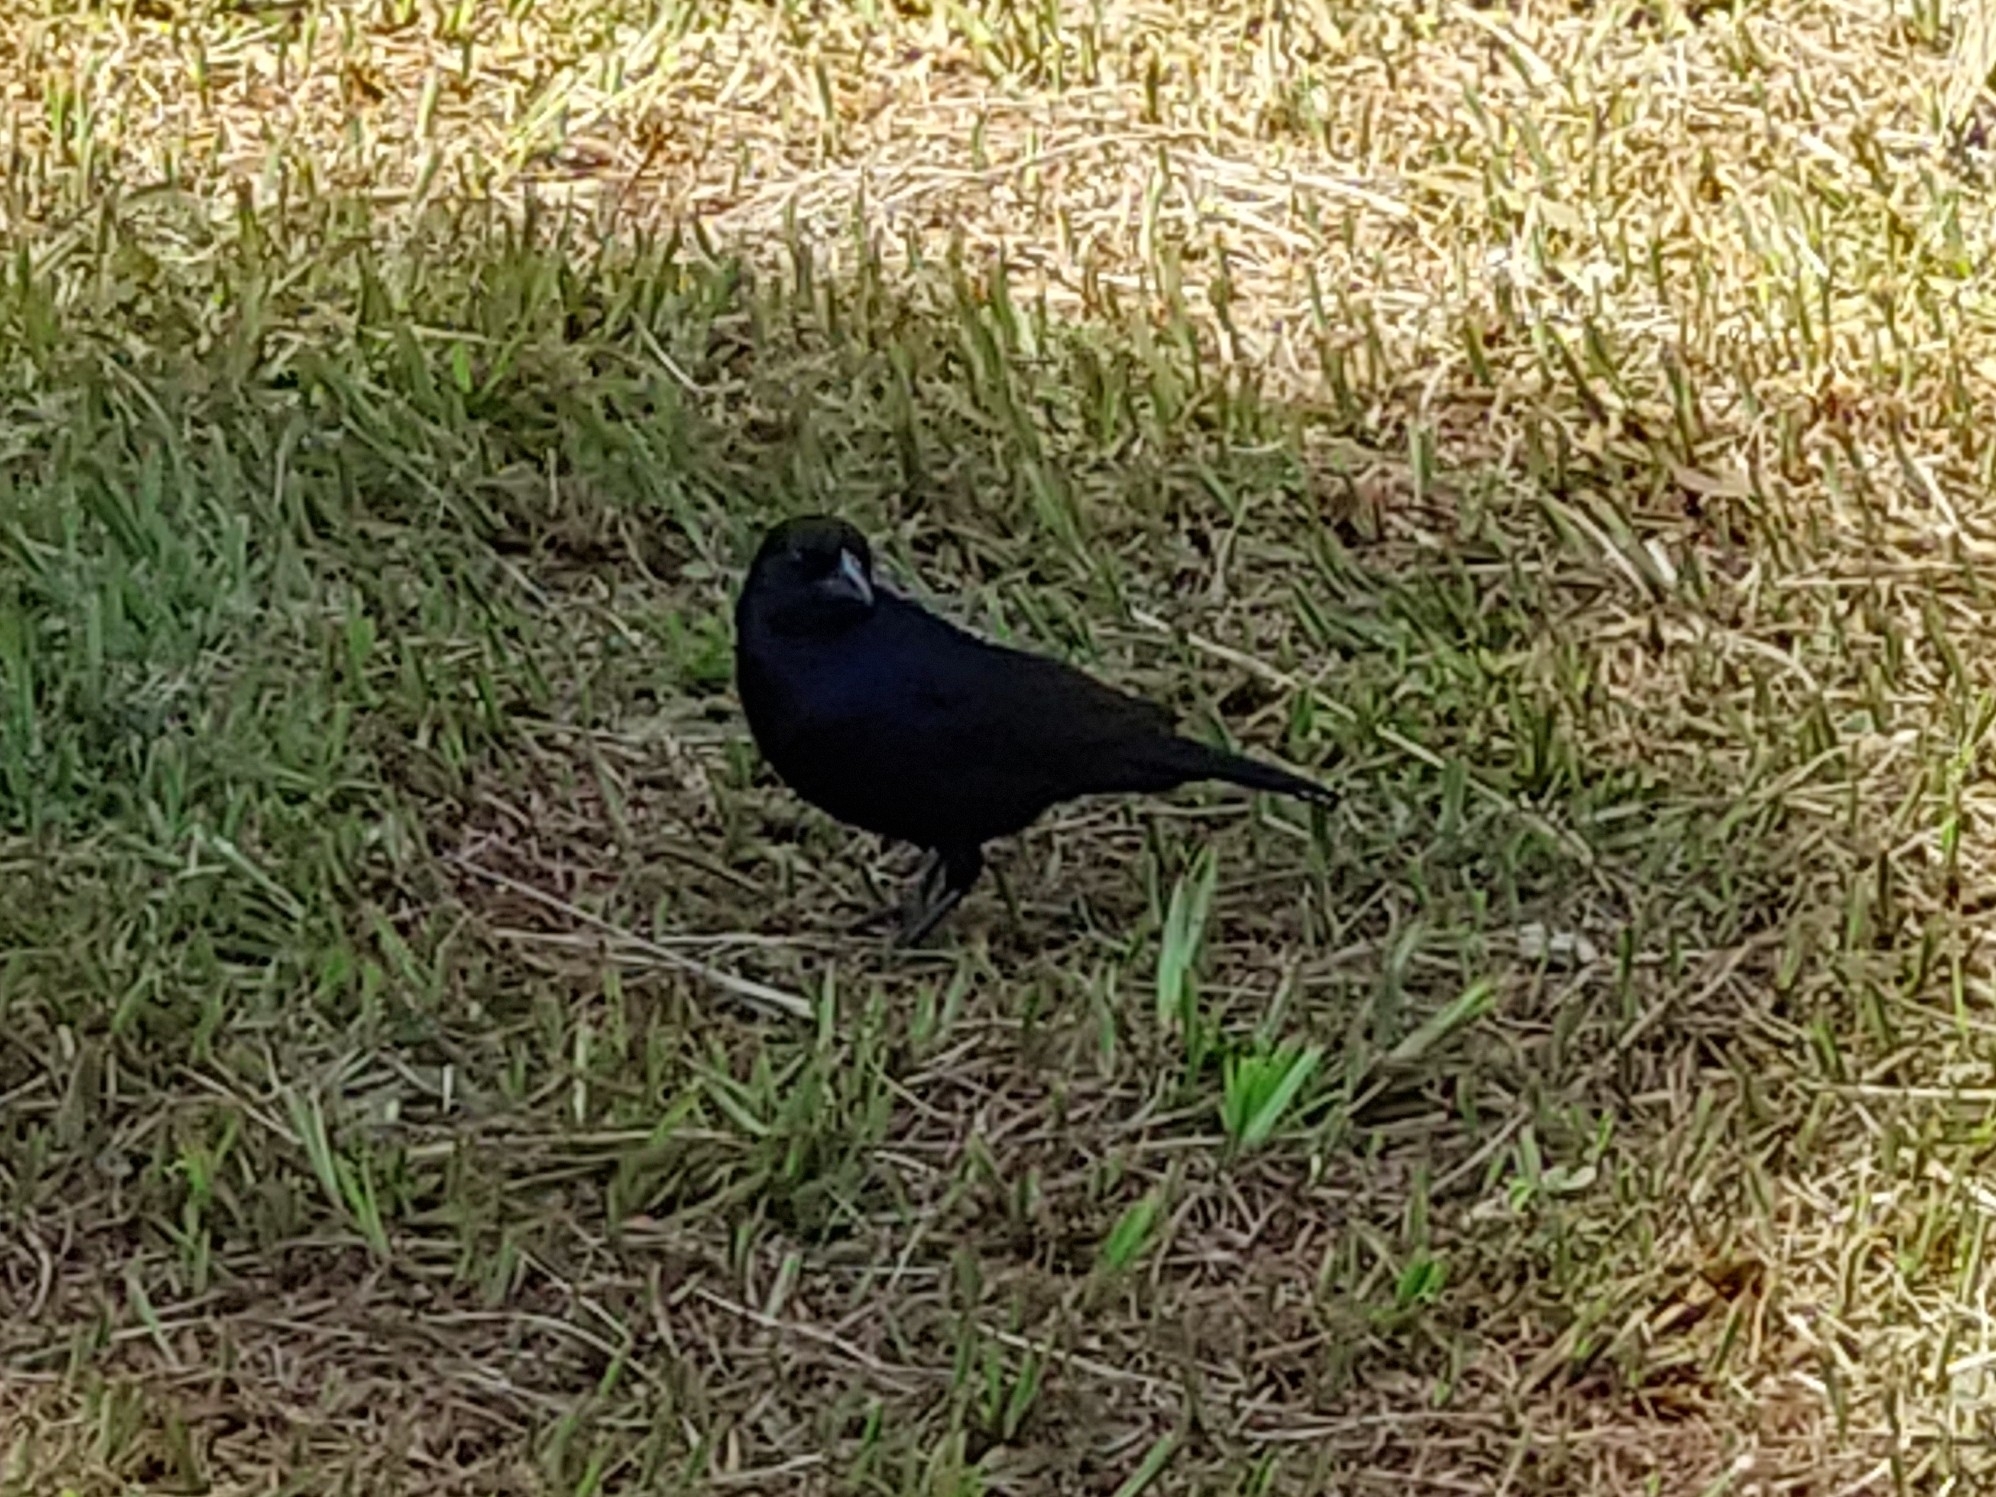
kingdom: Animalia
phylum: Chordata
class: Aves
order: Passeriformes
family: Icteridae
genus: Gnorimopsar
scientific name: Gnorimopsar chopi
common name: Chopi blackbird
